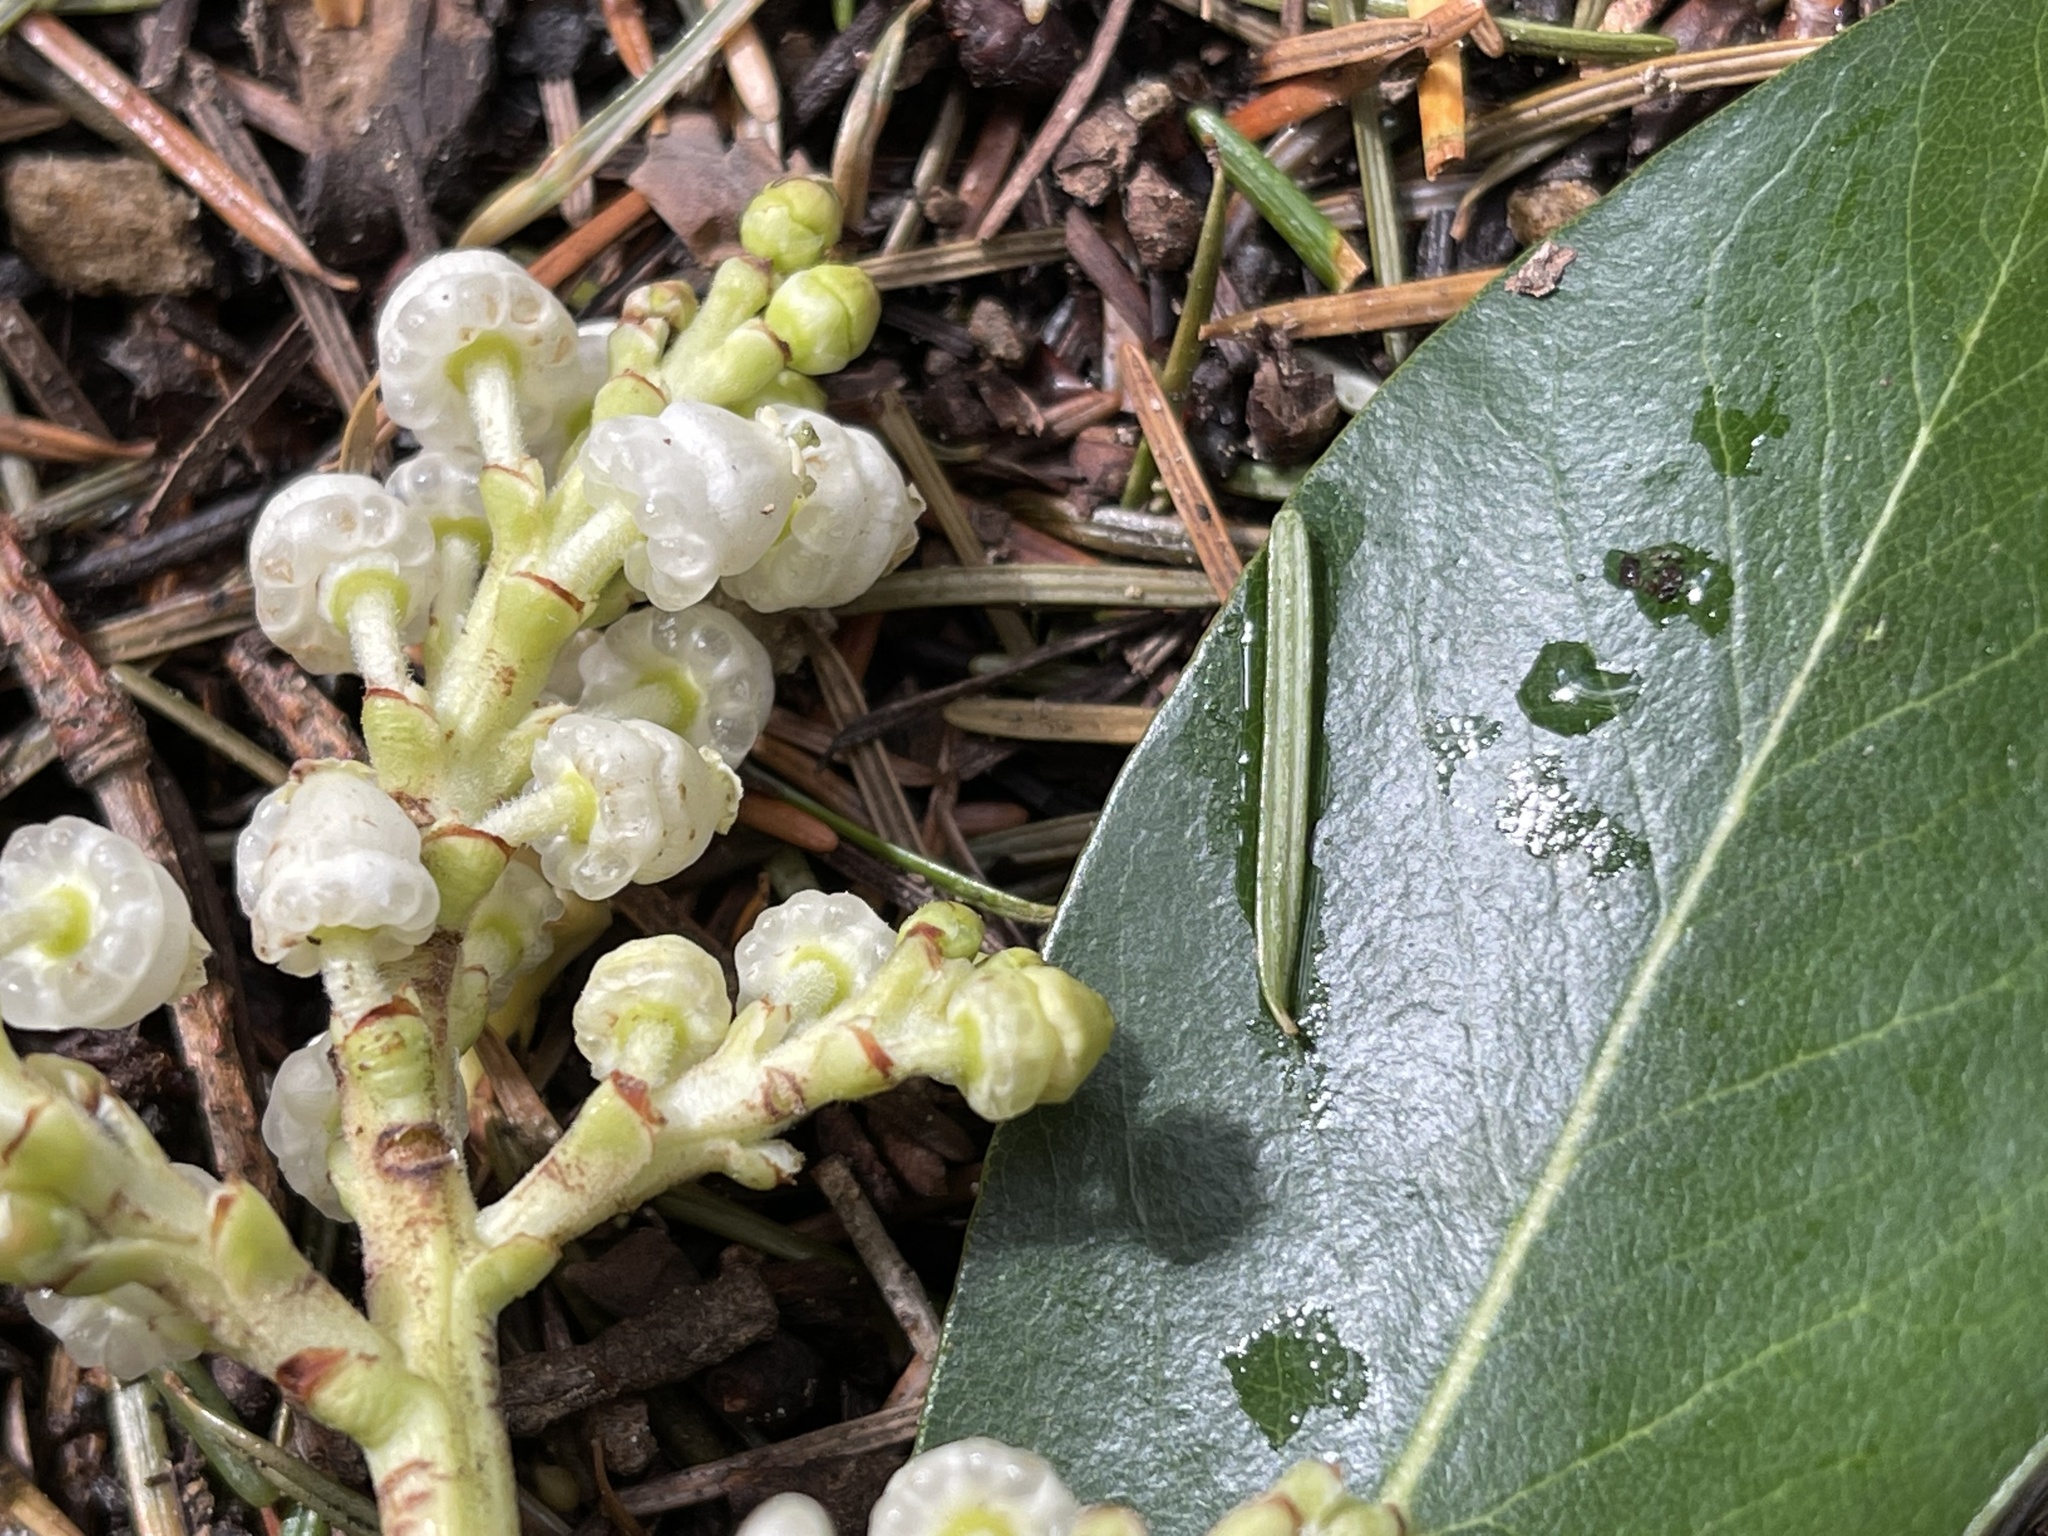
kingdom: Plantae
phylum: Tracheophyta
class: Magnoliopsida
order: Ericales
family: Ericaceae
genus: Arbutus
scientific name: Arbutus menziesii
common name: Pacific madrone
